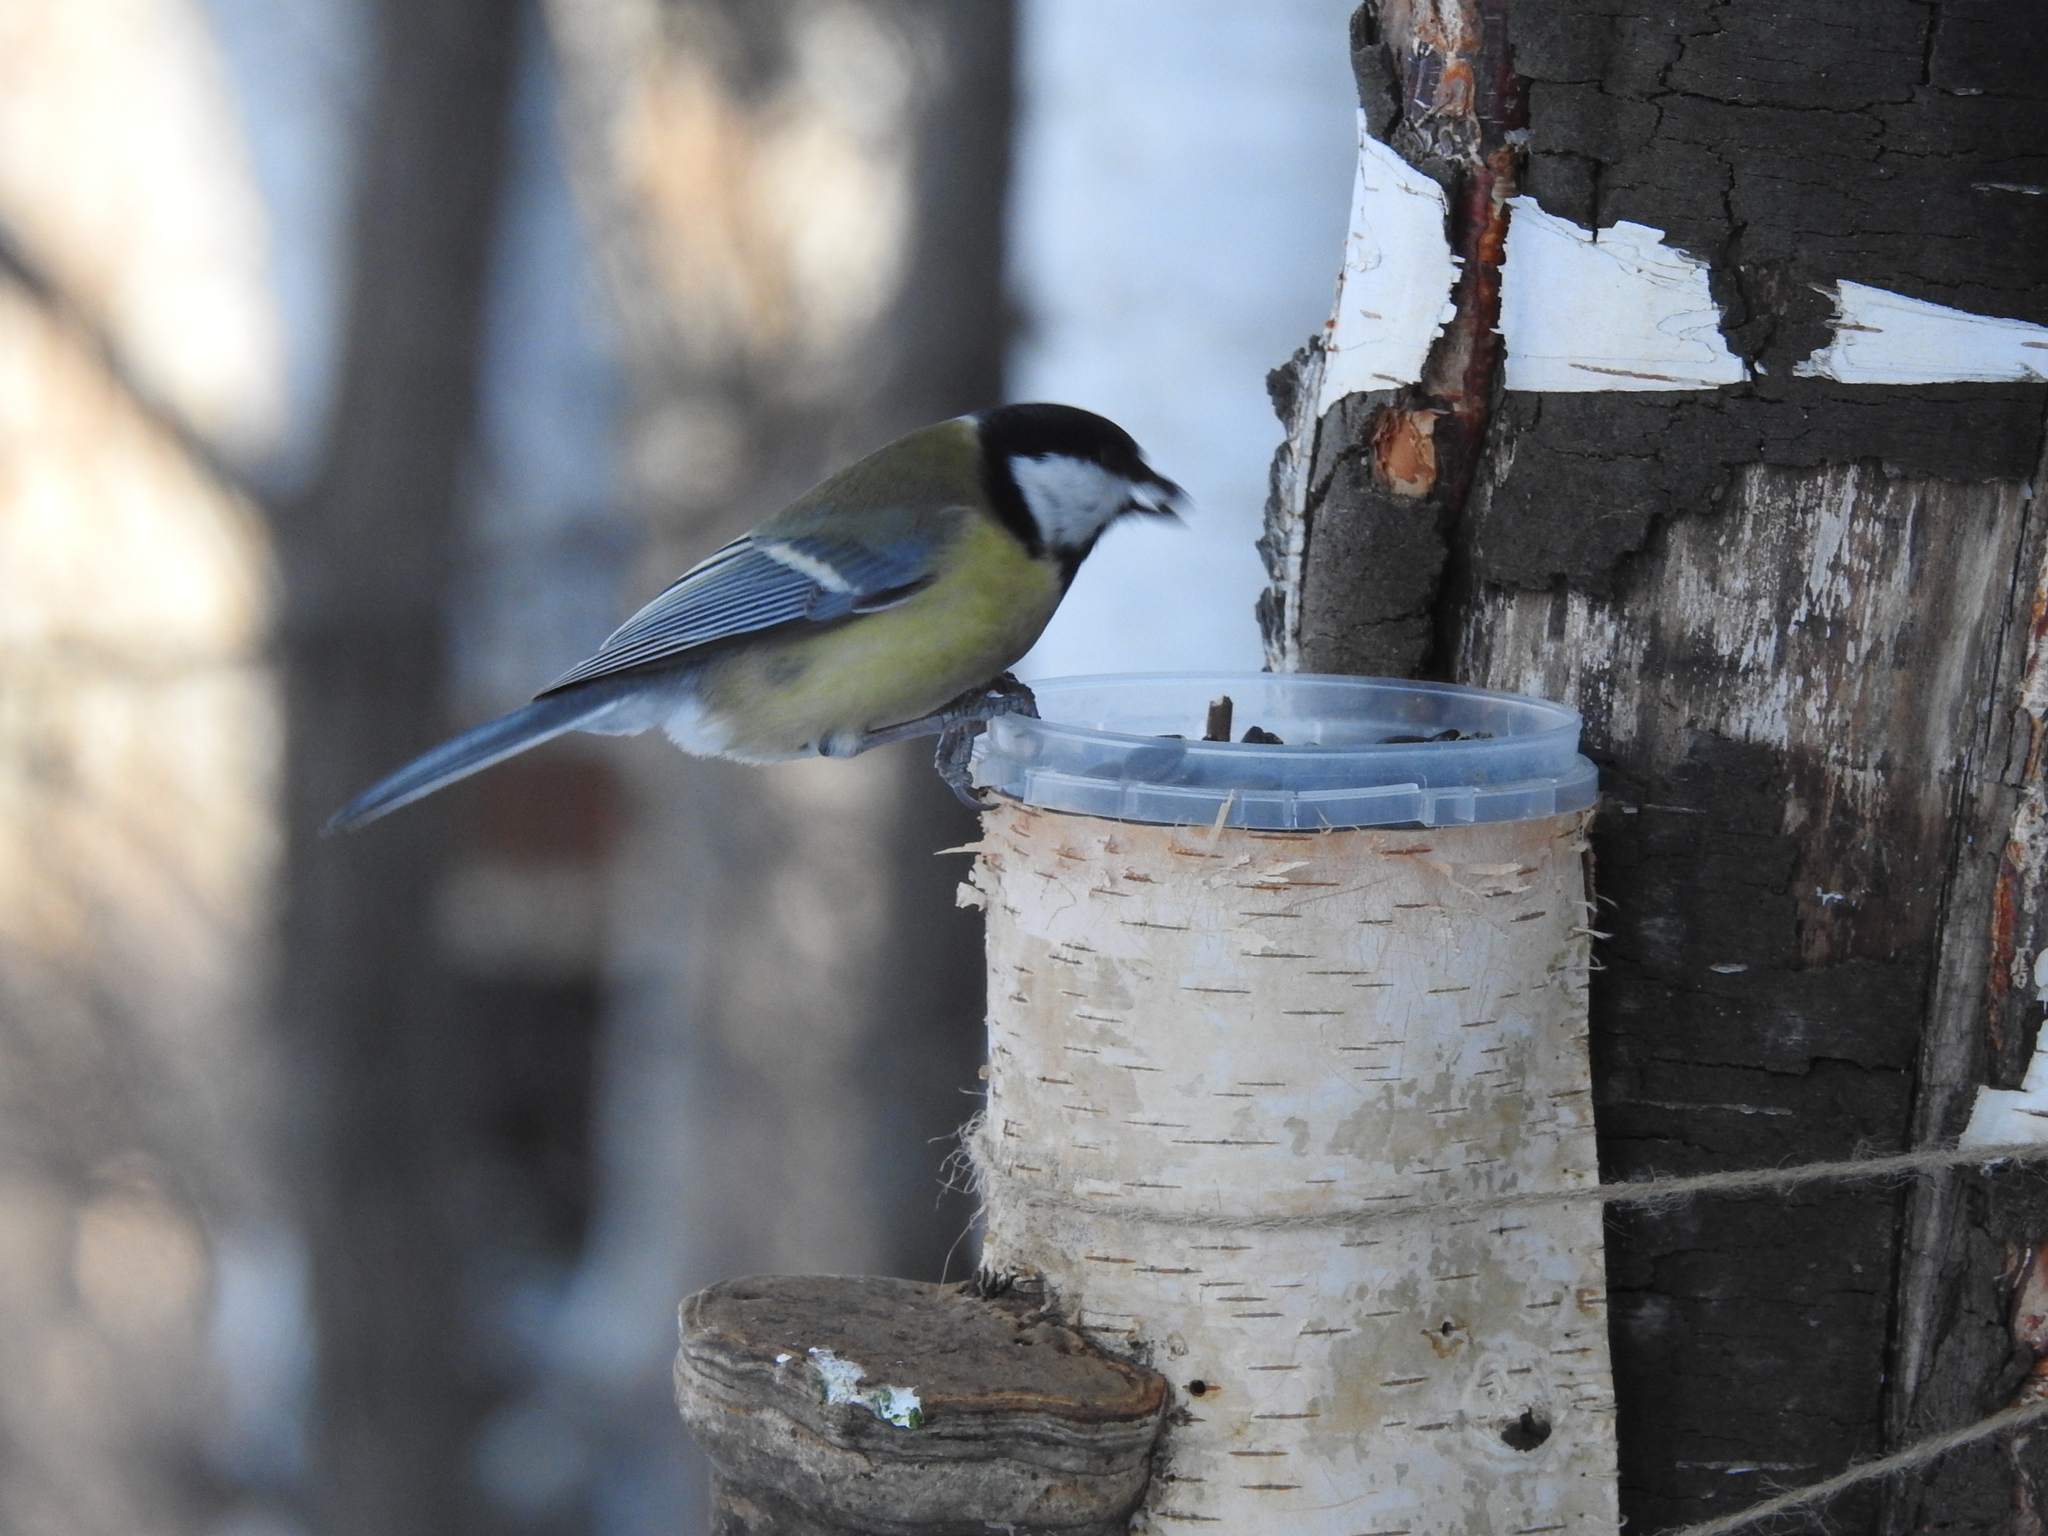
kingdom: Animalia
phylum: Chordata
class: Aves
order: Passeriformes
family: Paridae
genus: Parus
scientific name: Parus major
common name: Great tit
